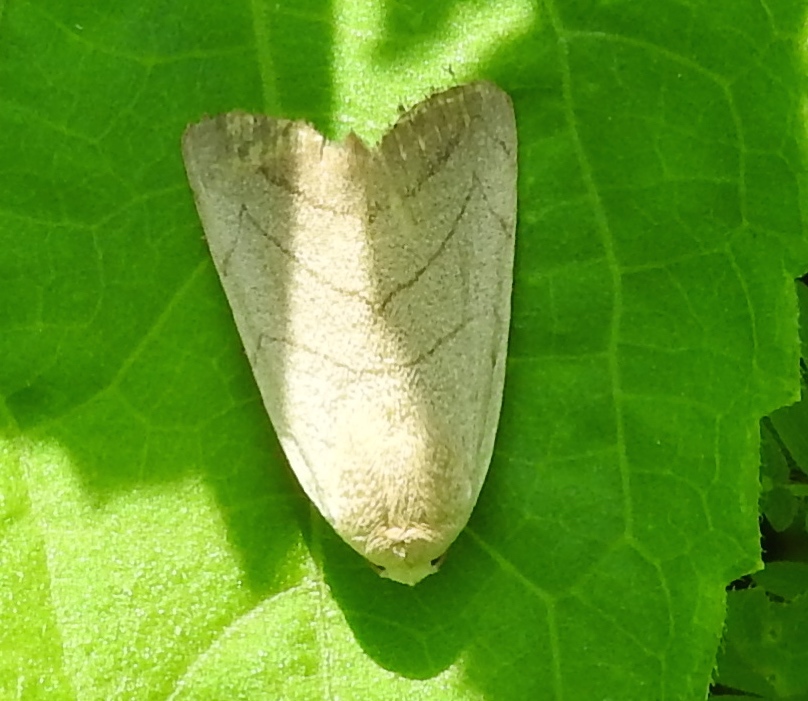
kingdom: Animalia
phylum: Arthropoda
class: Insecta
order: Lepidoptera
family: Noctuidae
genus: Bagisara
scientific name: Bagisara
